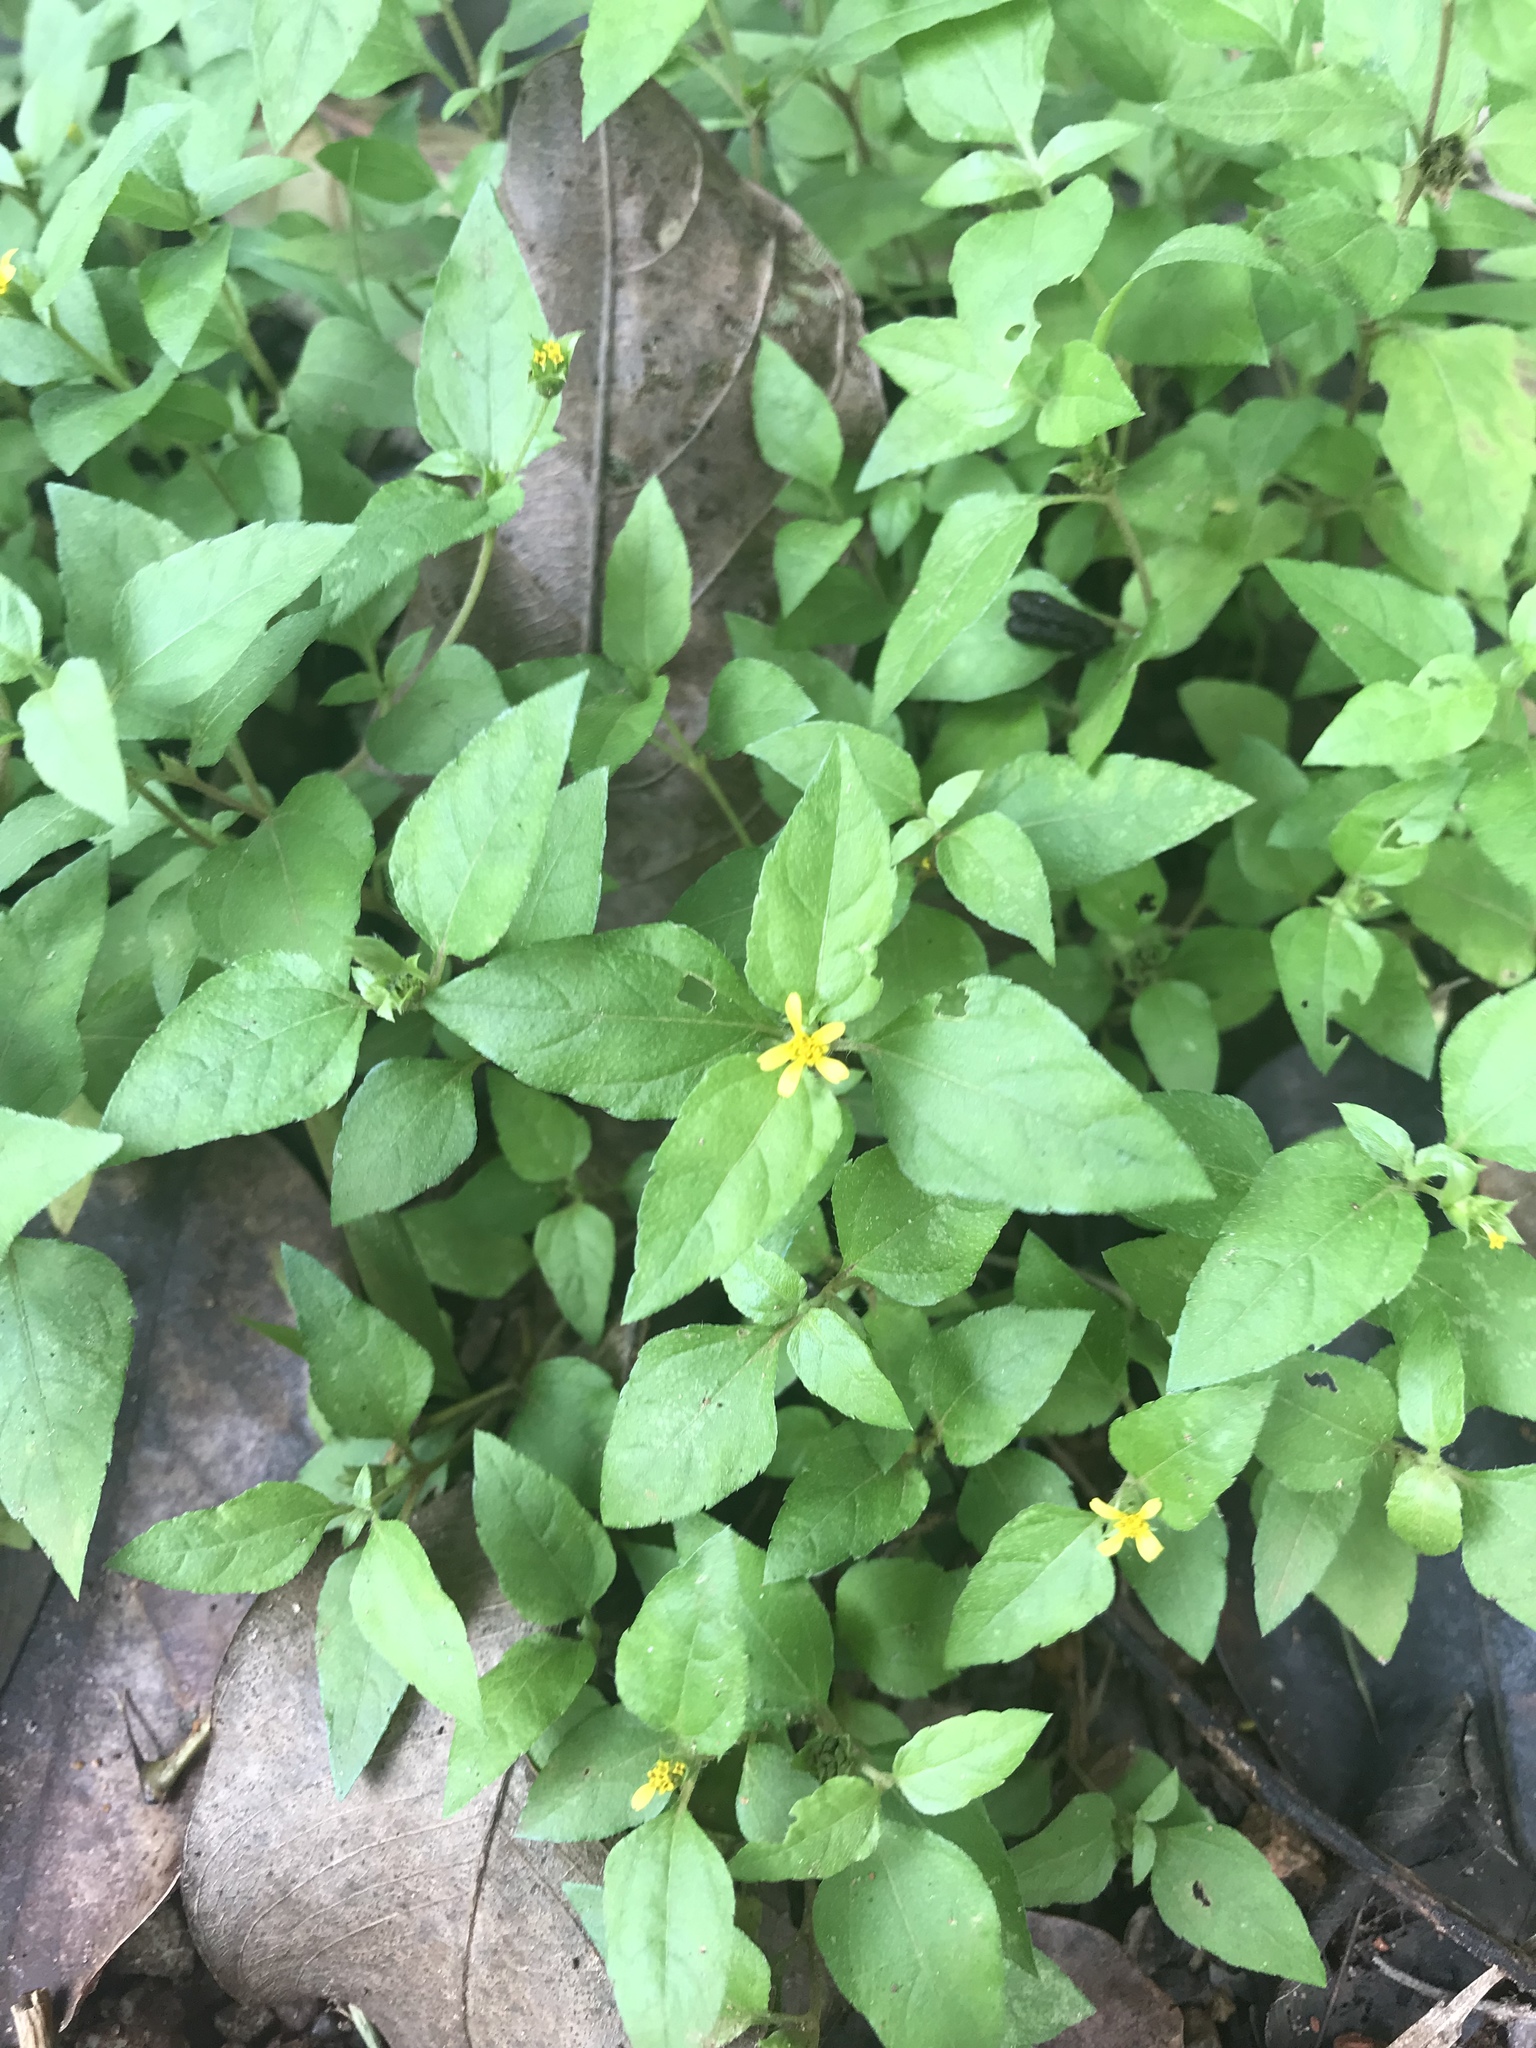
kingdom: Plantae
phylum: Tracheophyta
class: Magnoliopsida
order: Asterales
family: Asteraceae
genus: Calyptocarpus
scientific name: Calyptocarpus vialis
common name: Straggler daisy
